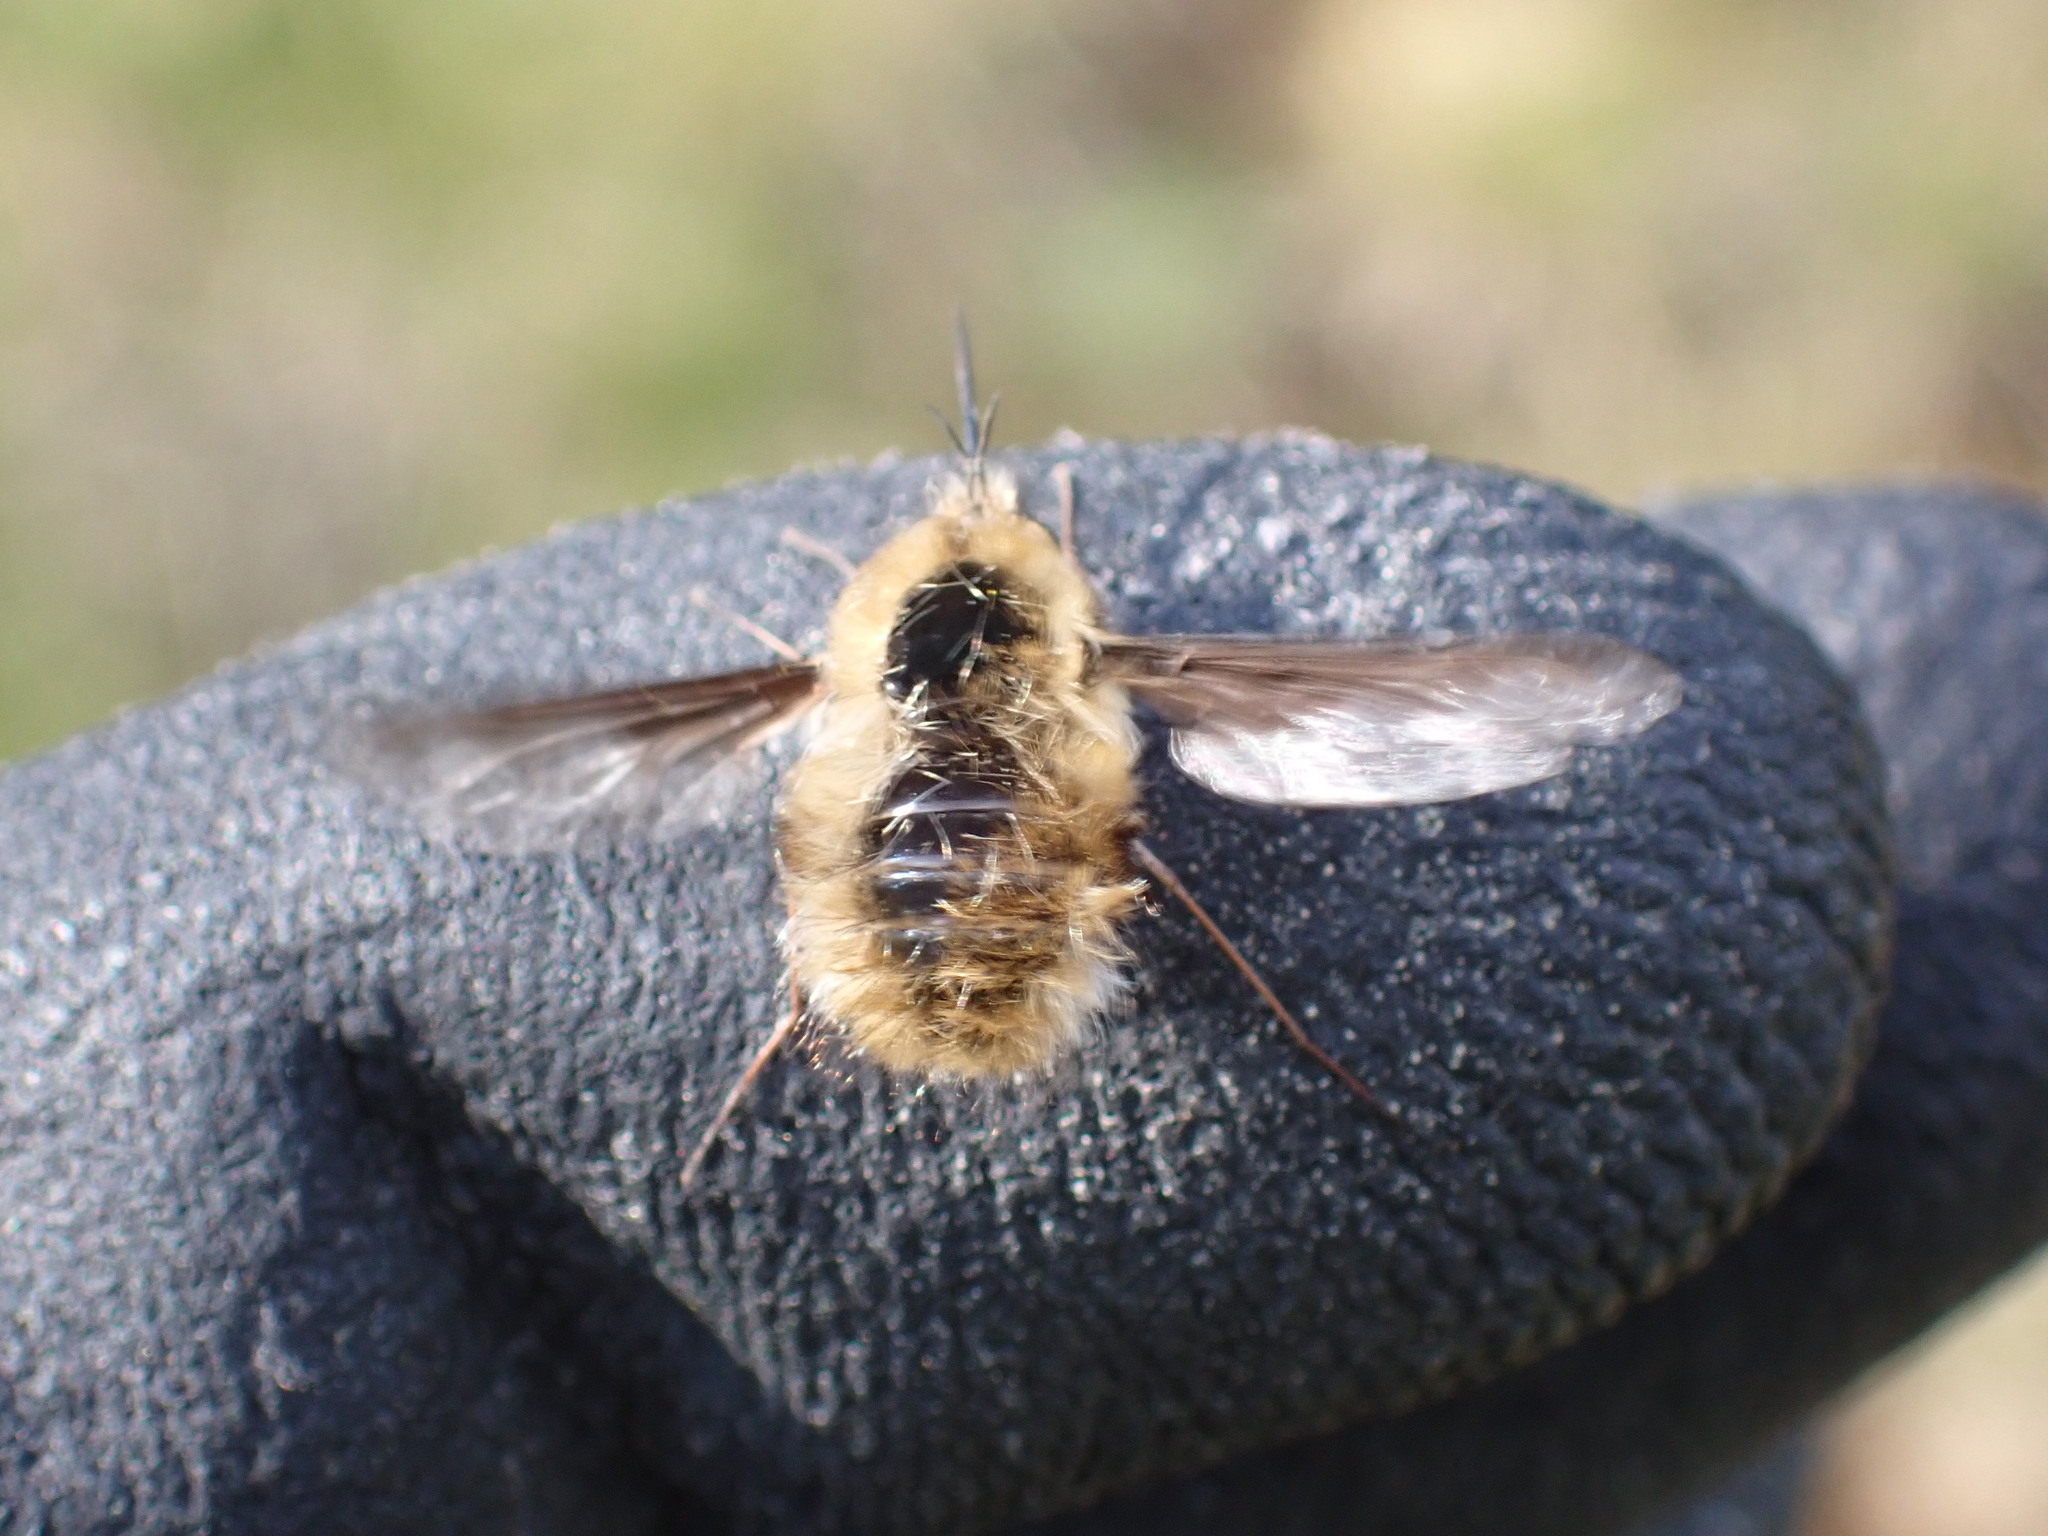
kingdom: Animalia
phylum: Arthropoda
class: Insecta
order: Diptera
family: Bombyliidae
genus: Bombylius
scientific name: Bombylius major
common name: Bee fly
